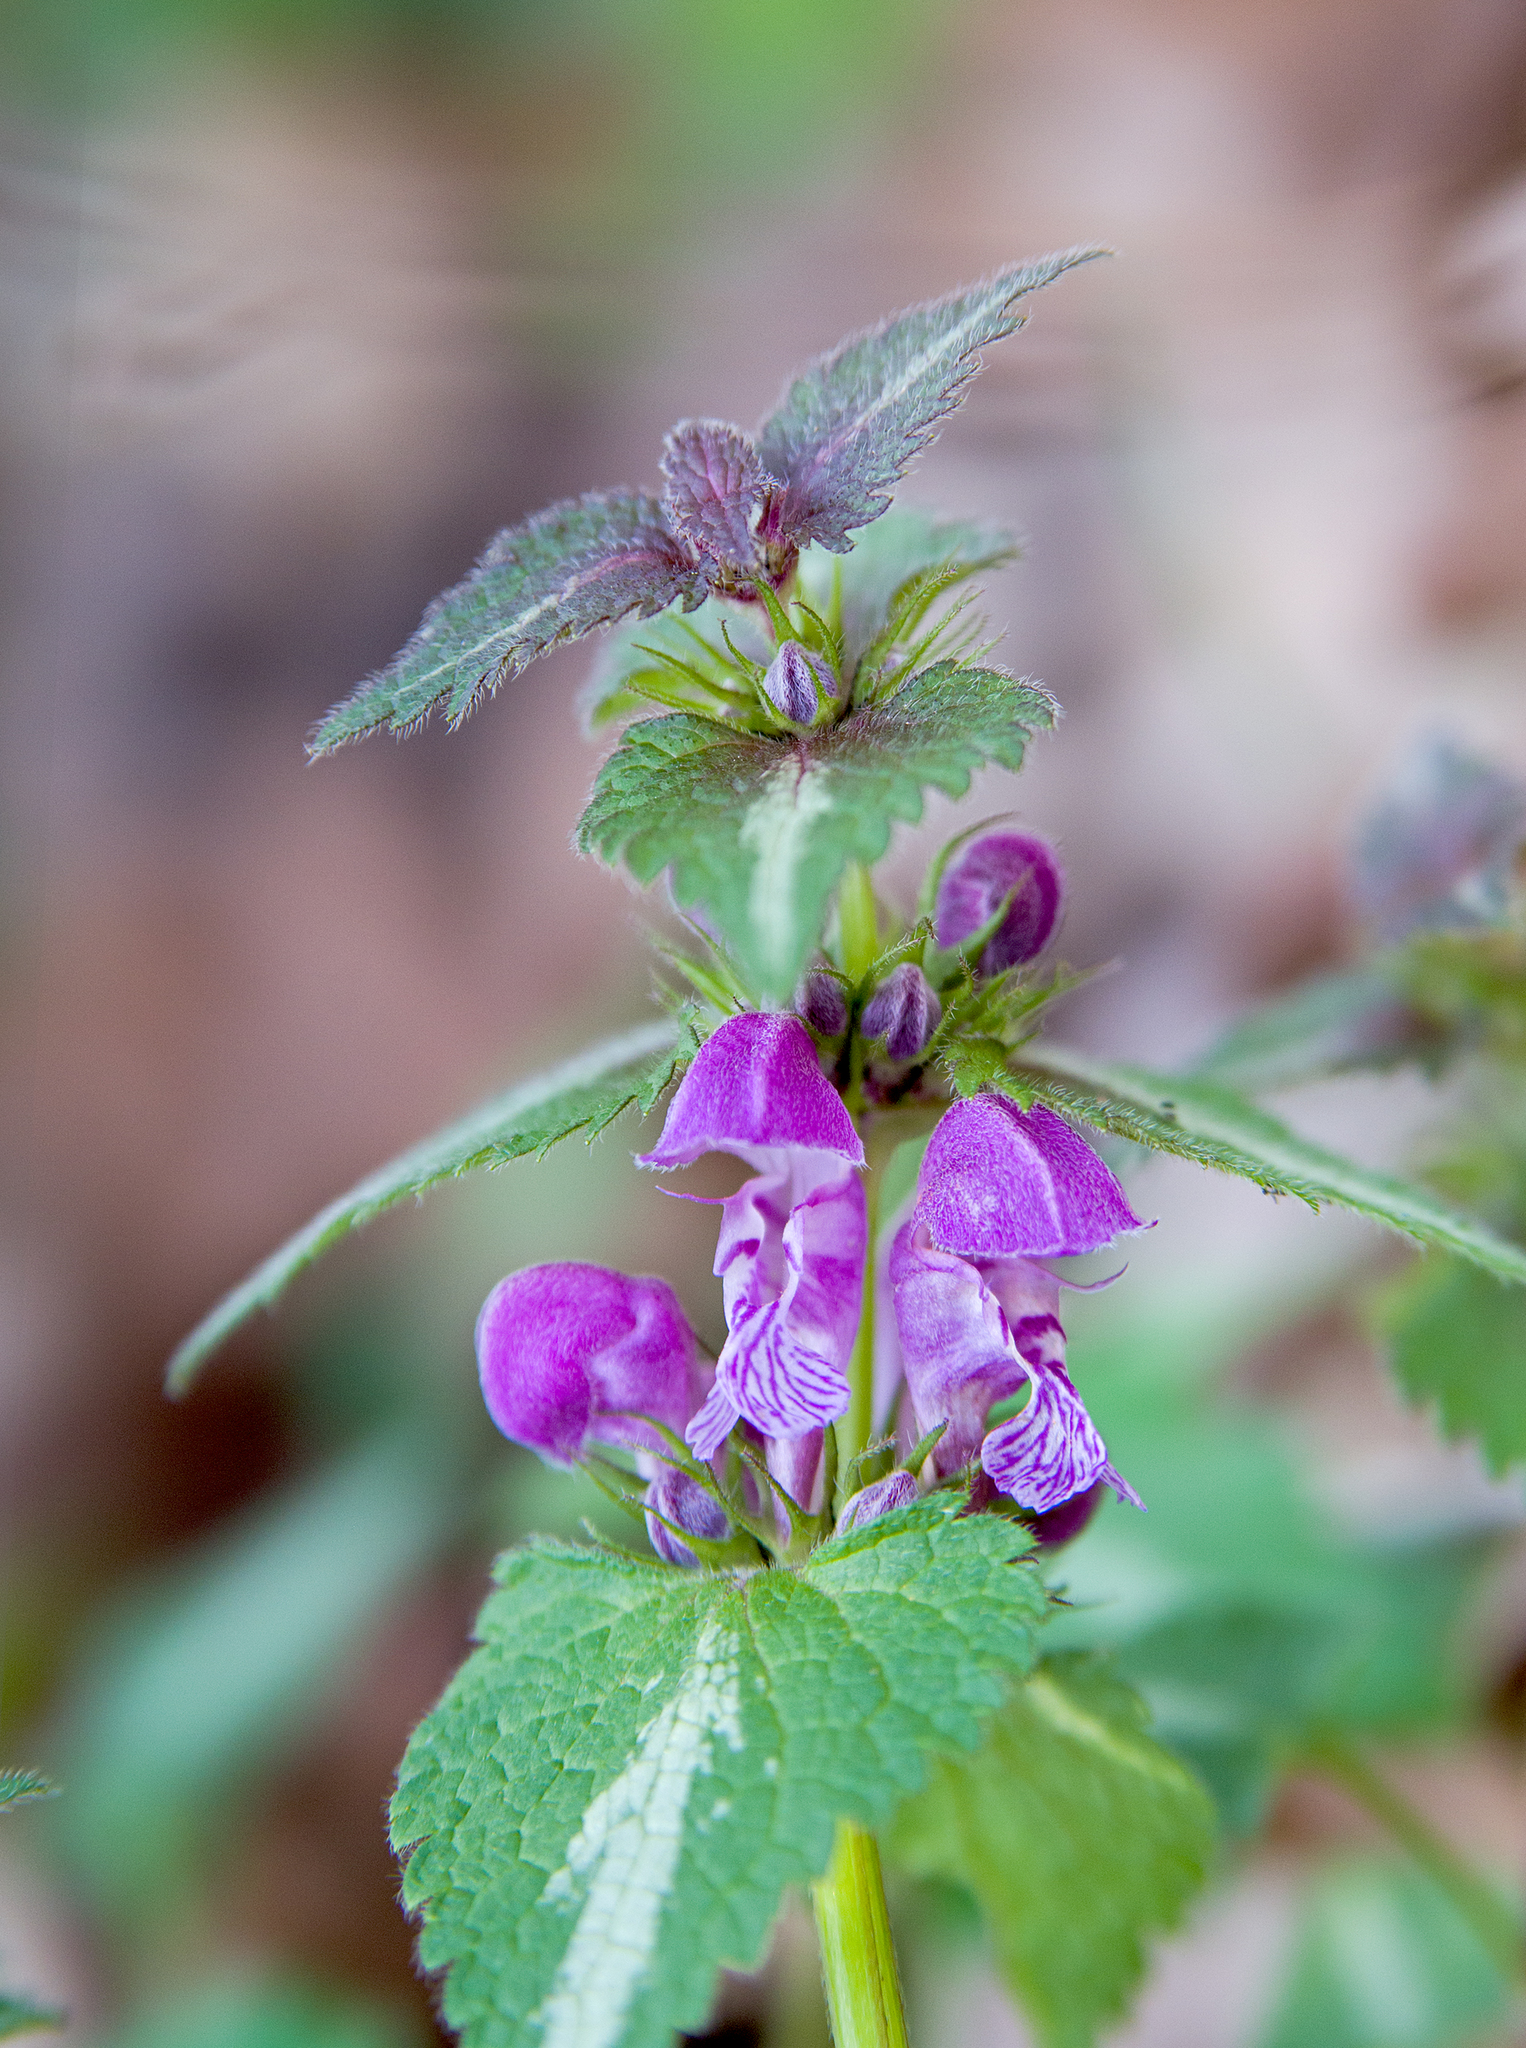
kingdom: Plantae
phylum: Tracheophyta
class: Magnoliopsida
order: Lamiales
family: Lamiaceae
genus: Lamium
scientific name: Lamium maculatum
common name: Spotted dead-nettle
